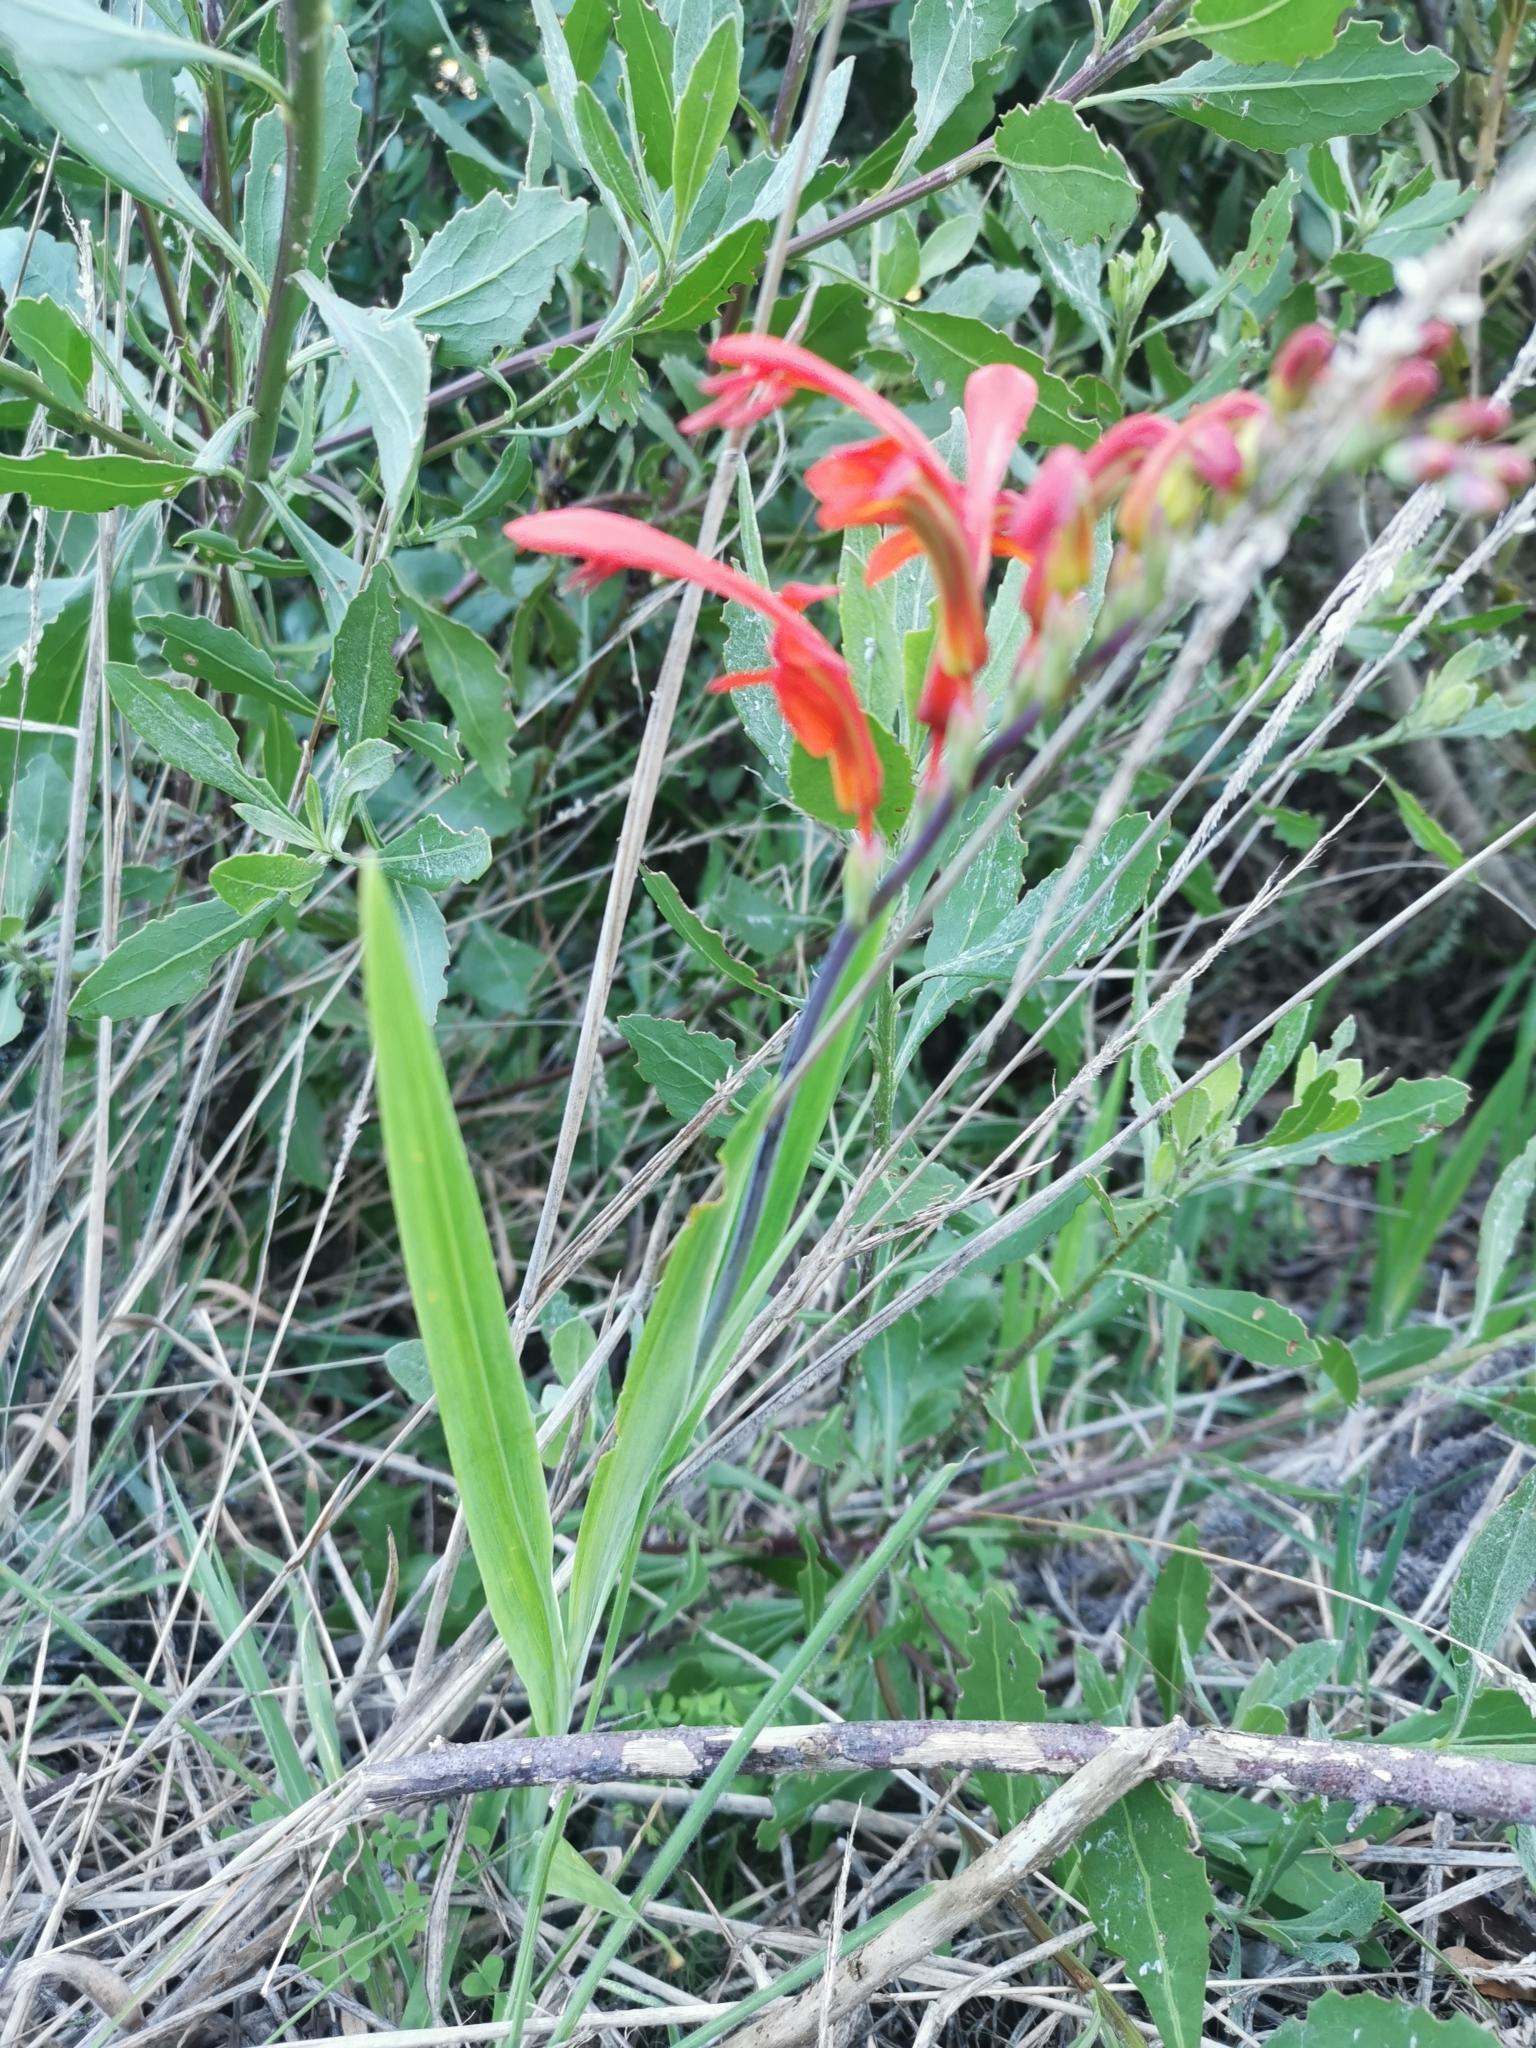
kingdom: Plantae
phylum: Tracheophyta
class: Liliopsida
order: Asparagales
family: Iridaceae
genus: Chasmanthe
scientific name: Chasmanthe aethiopica
